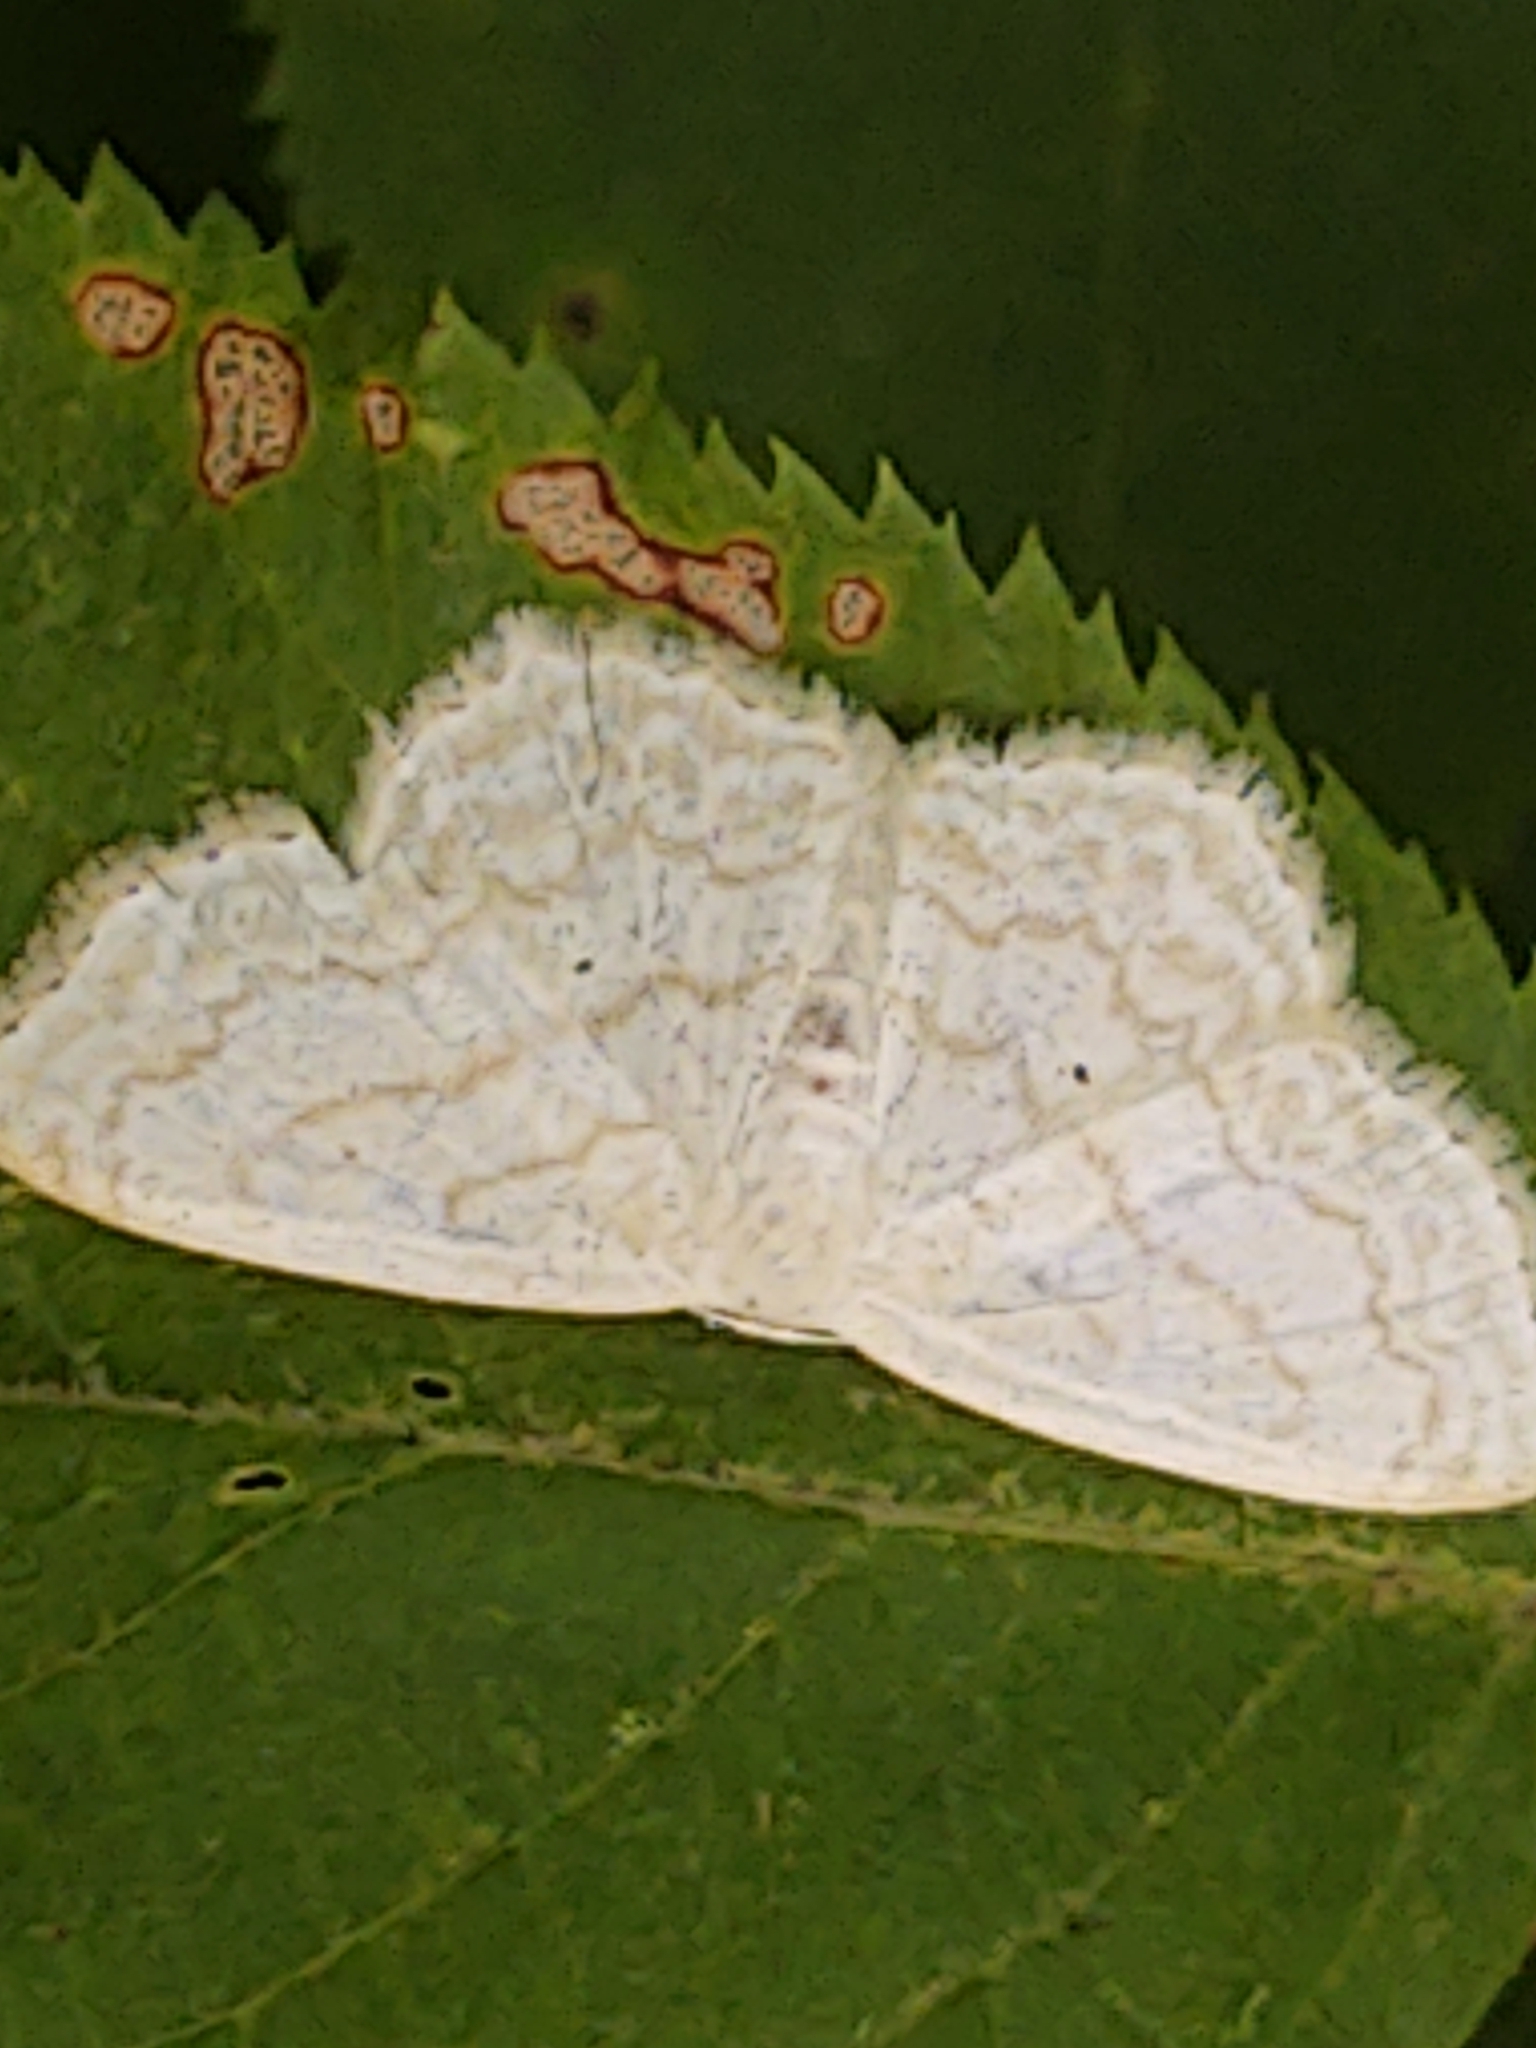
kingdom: Animalia
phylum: Arthropoda
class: Insecta
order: Lepidoptera
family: Geometridae
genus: Scopula
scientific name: Scopula limboundata
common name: Large lace border
